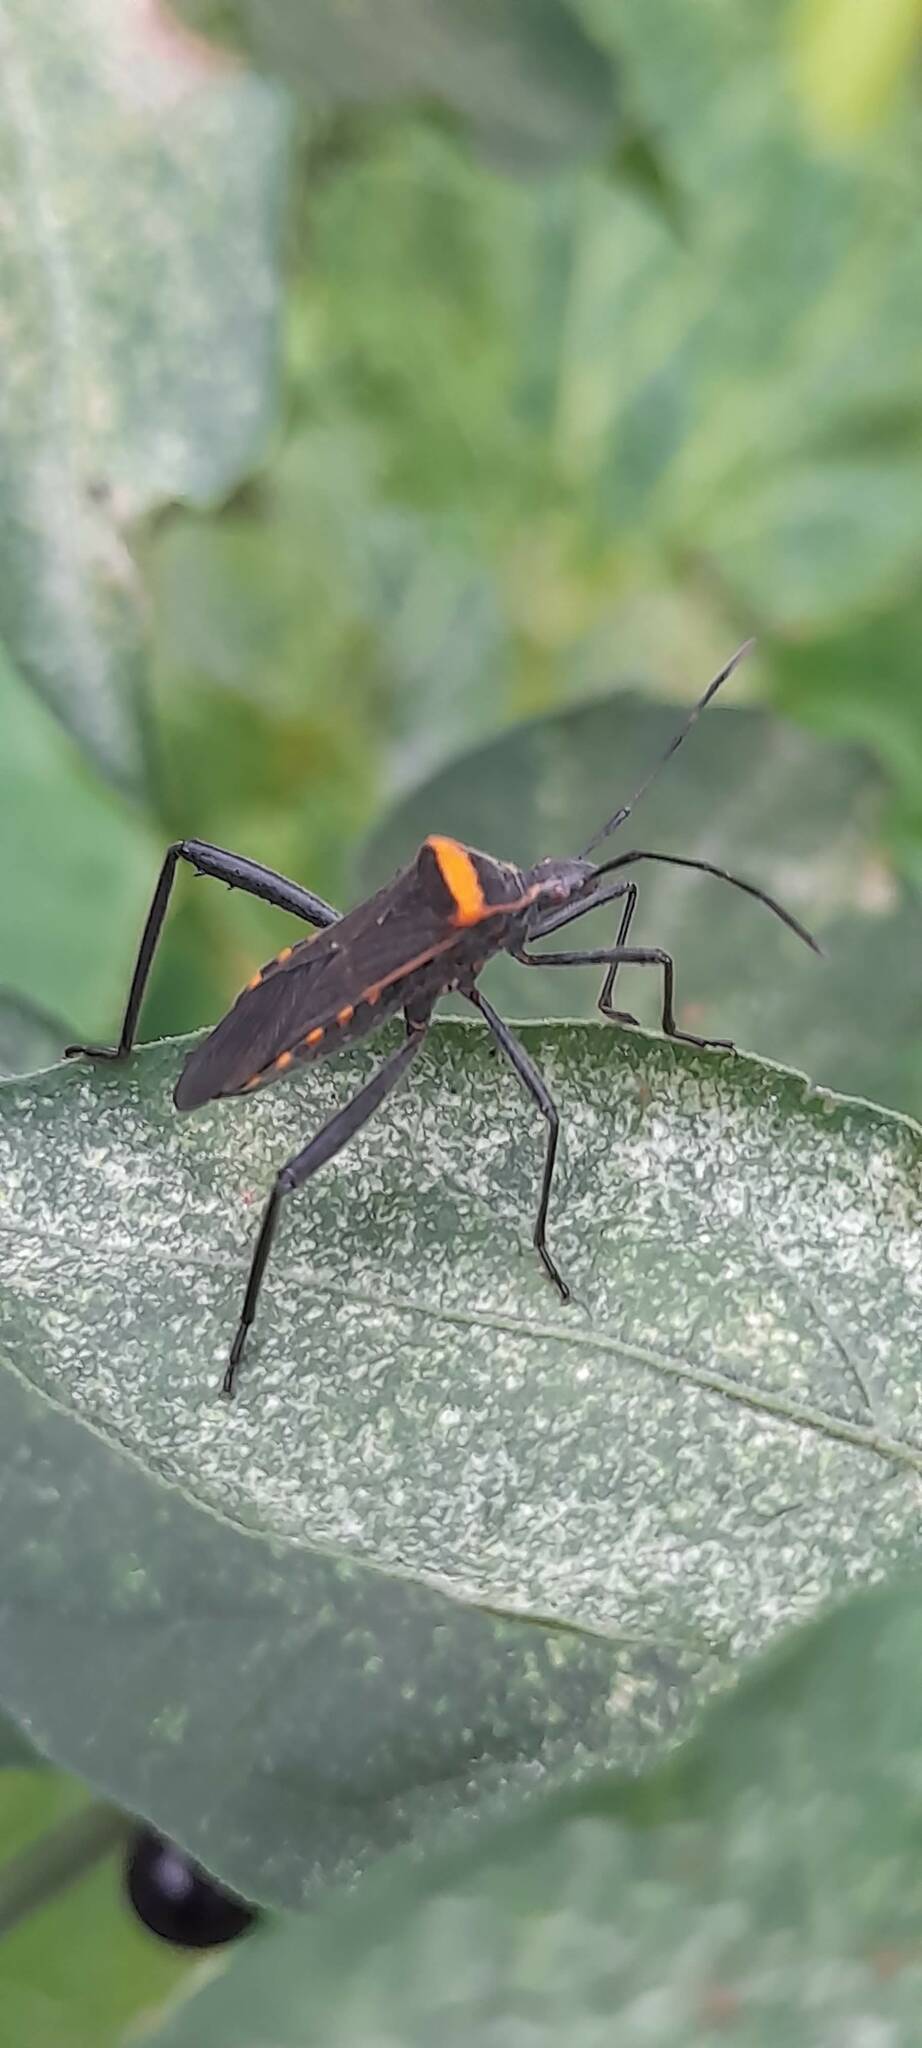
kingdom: Animalia
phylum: Arthropoda
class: Insecta
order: Hemiptera
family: Coreidae
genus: Phthiacnemia
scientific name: Phthiacnemia picta
